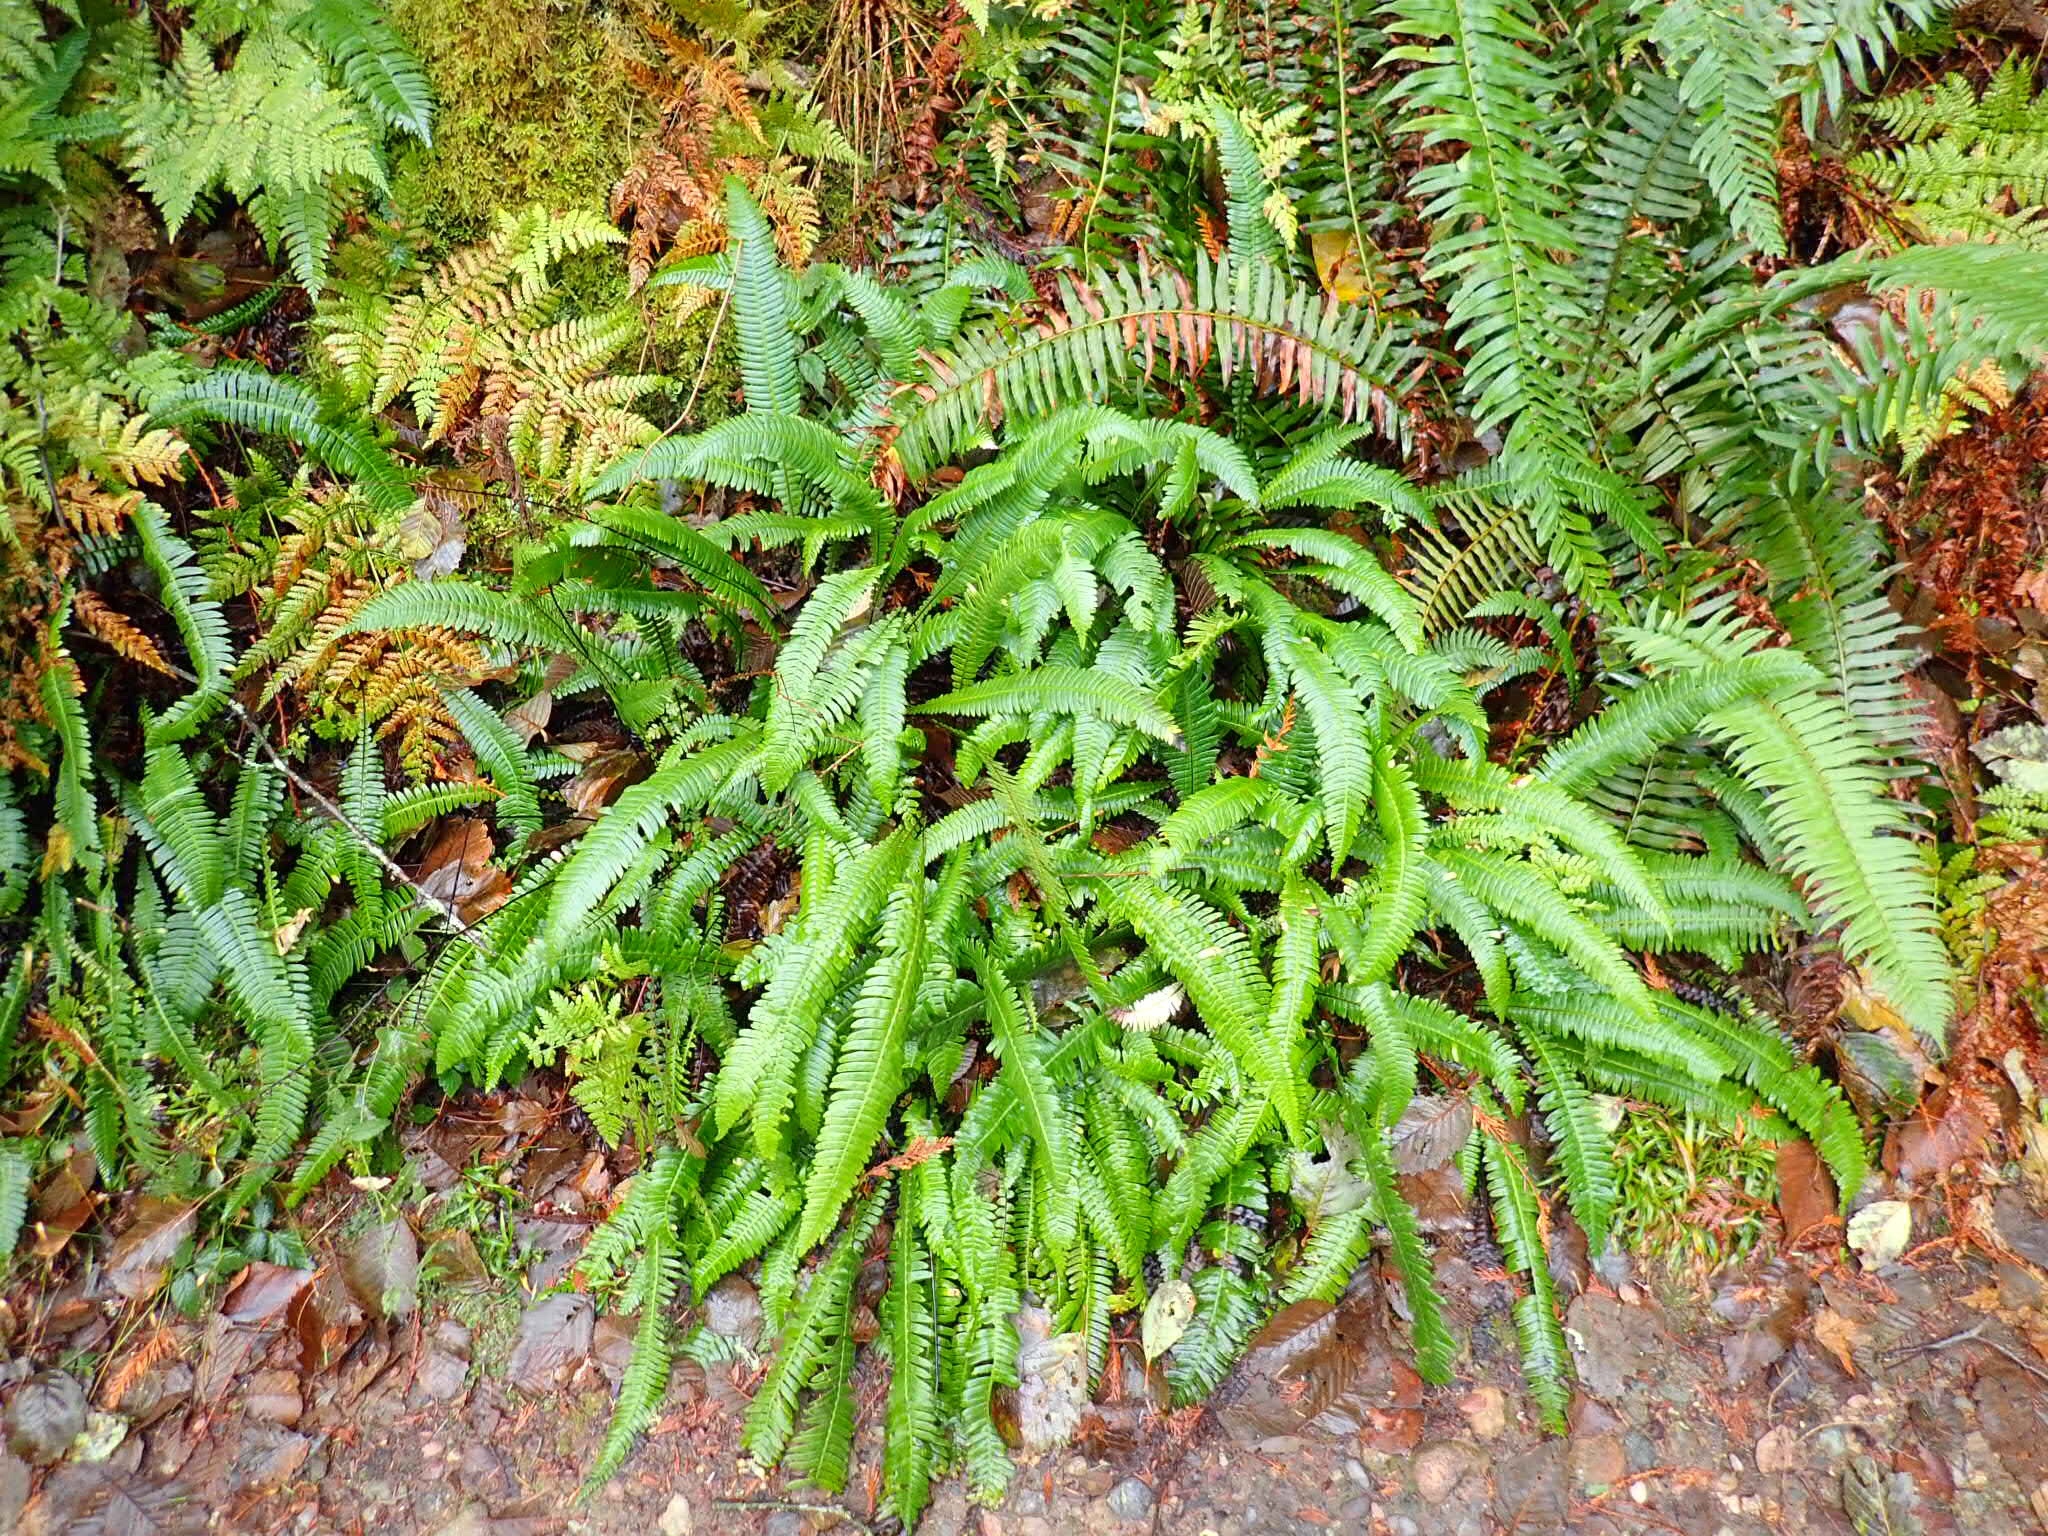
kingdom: Plantae
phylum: Tracheophyta
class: Polypodiopsida
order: Polypodiales
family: Blechnaceae
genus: Struthiopteris
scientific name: Struthiopteris spicant
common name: Deer fern
